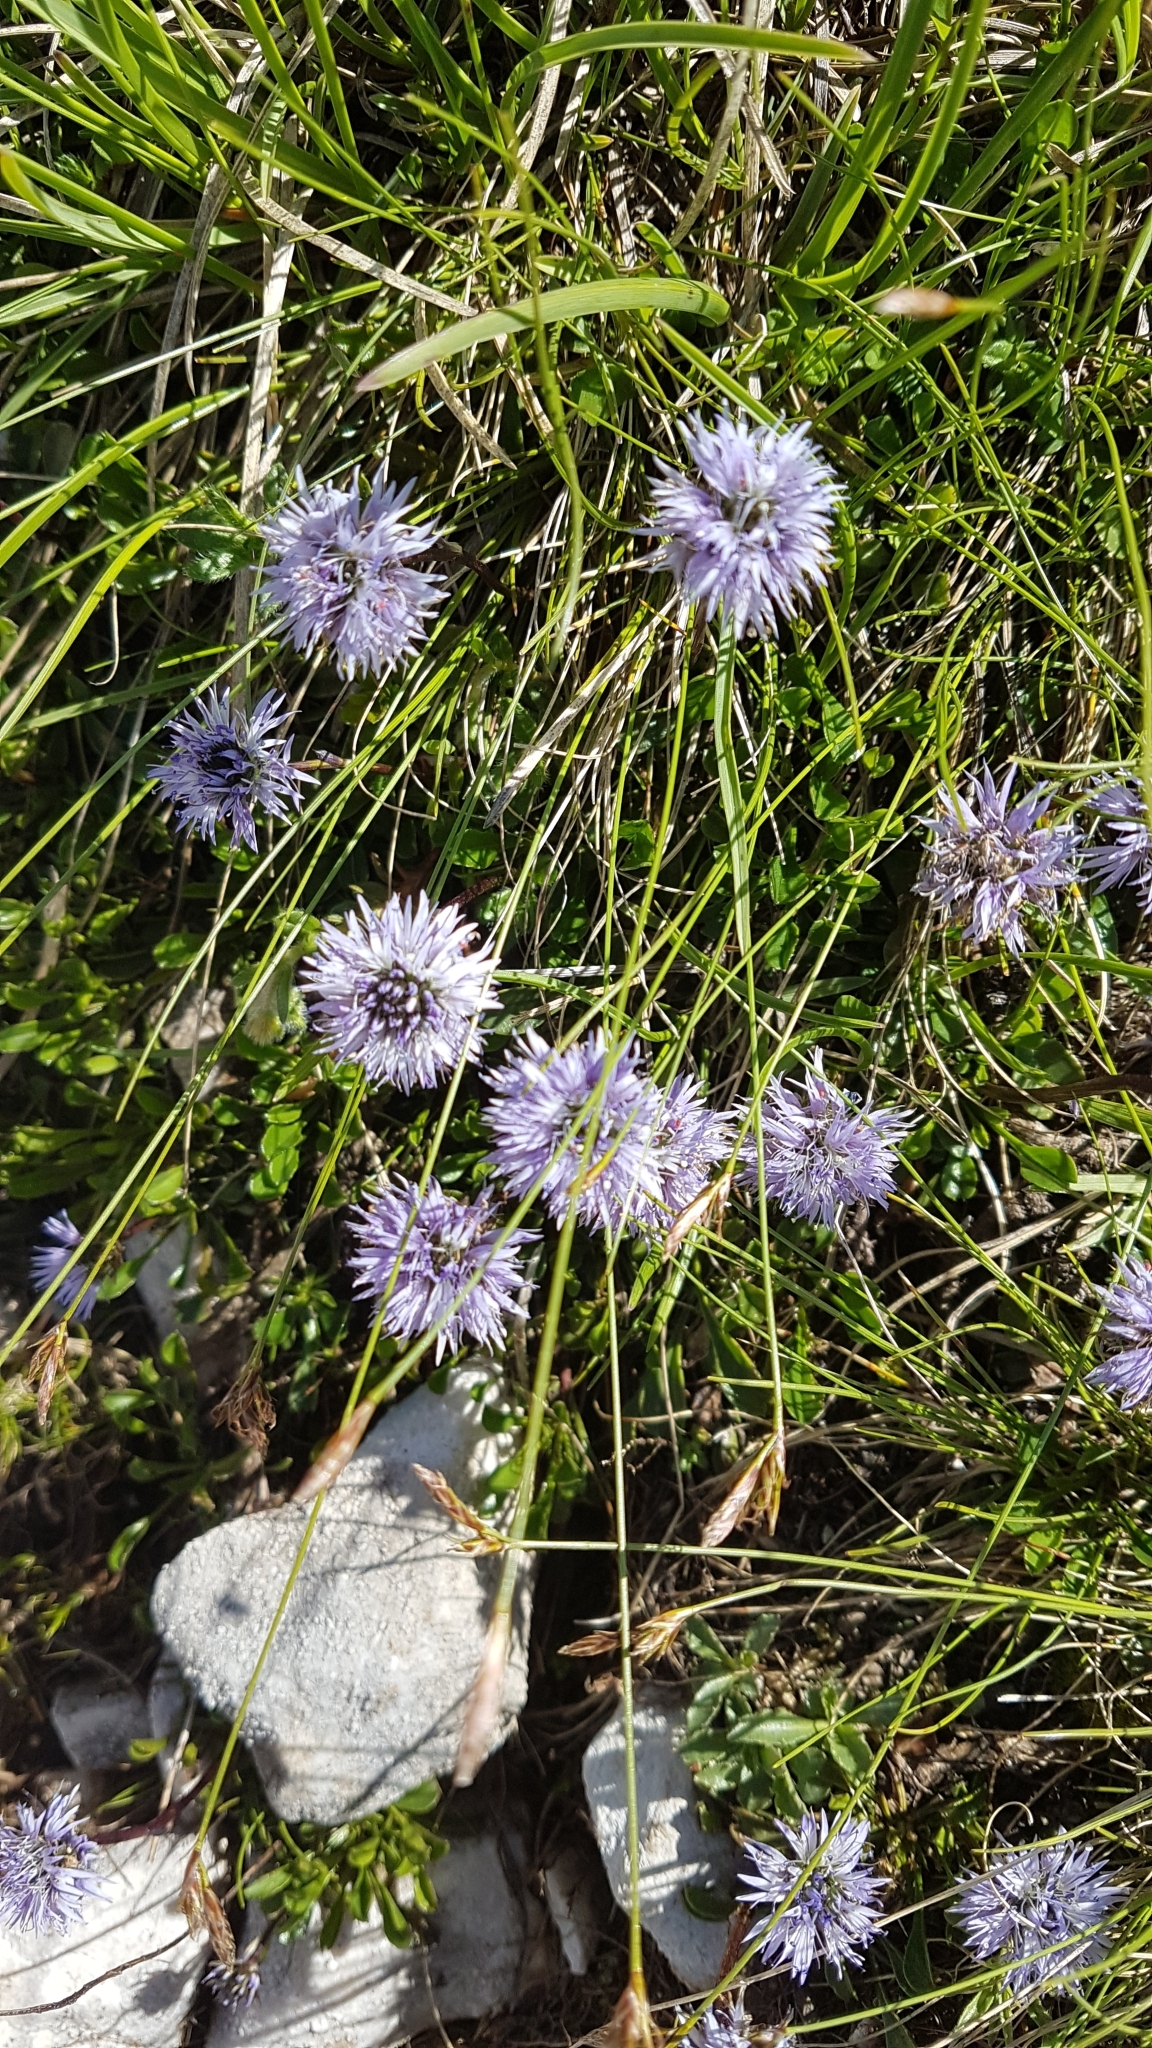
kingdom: Plantae
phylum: Tracheophyta
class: Magnoliopsida
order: Lamiales
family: Plantaginaceae
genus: Globularia
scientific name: Globularia cordifolia
